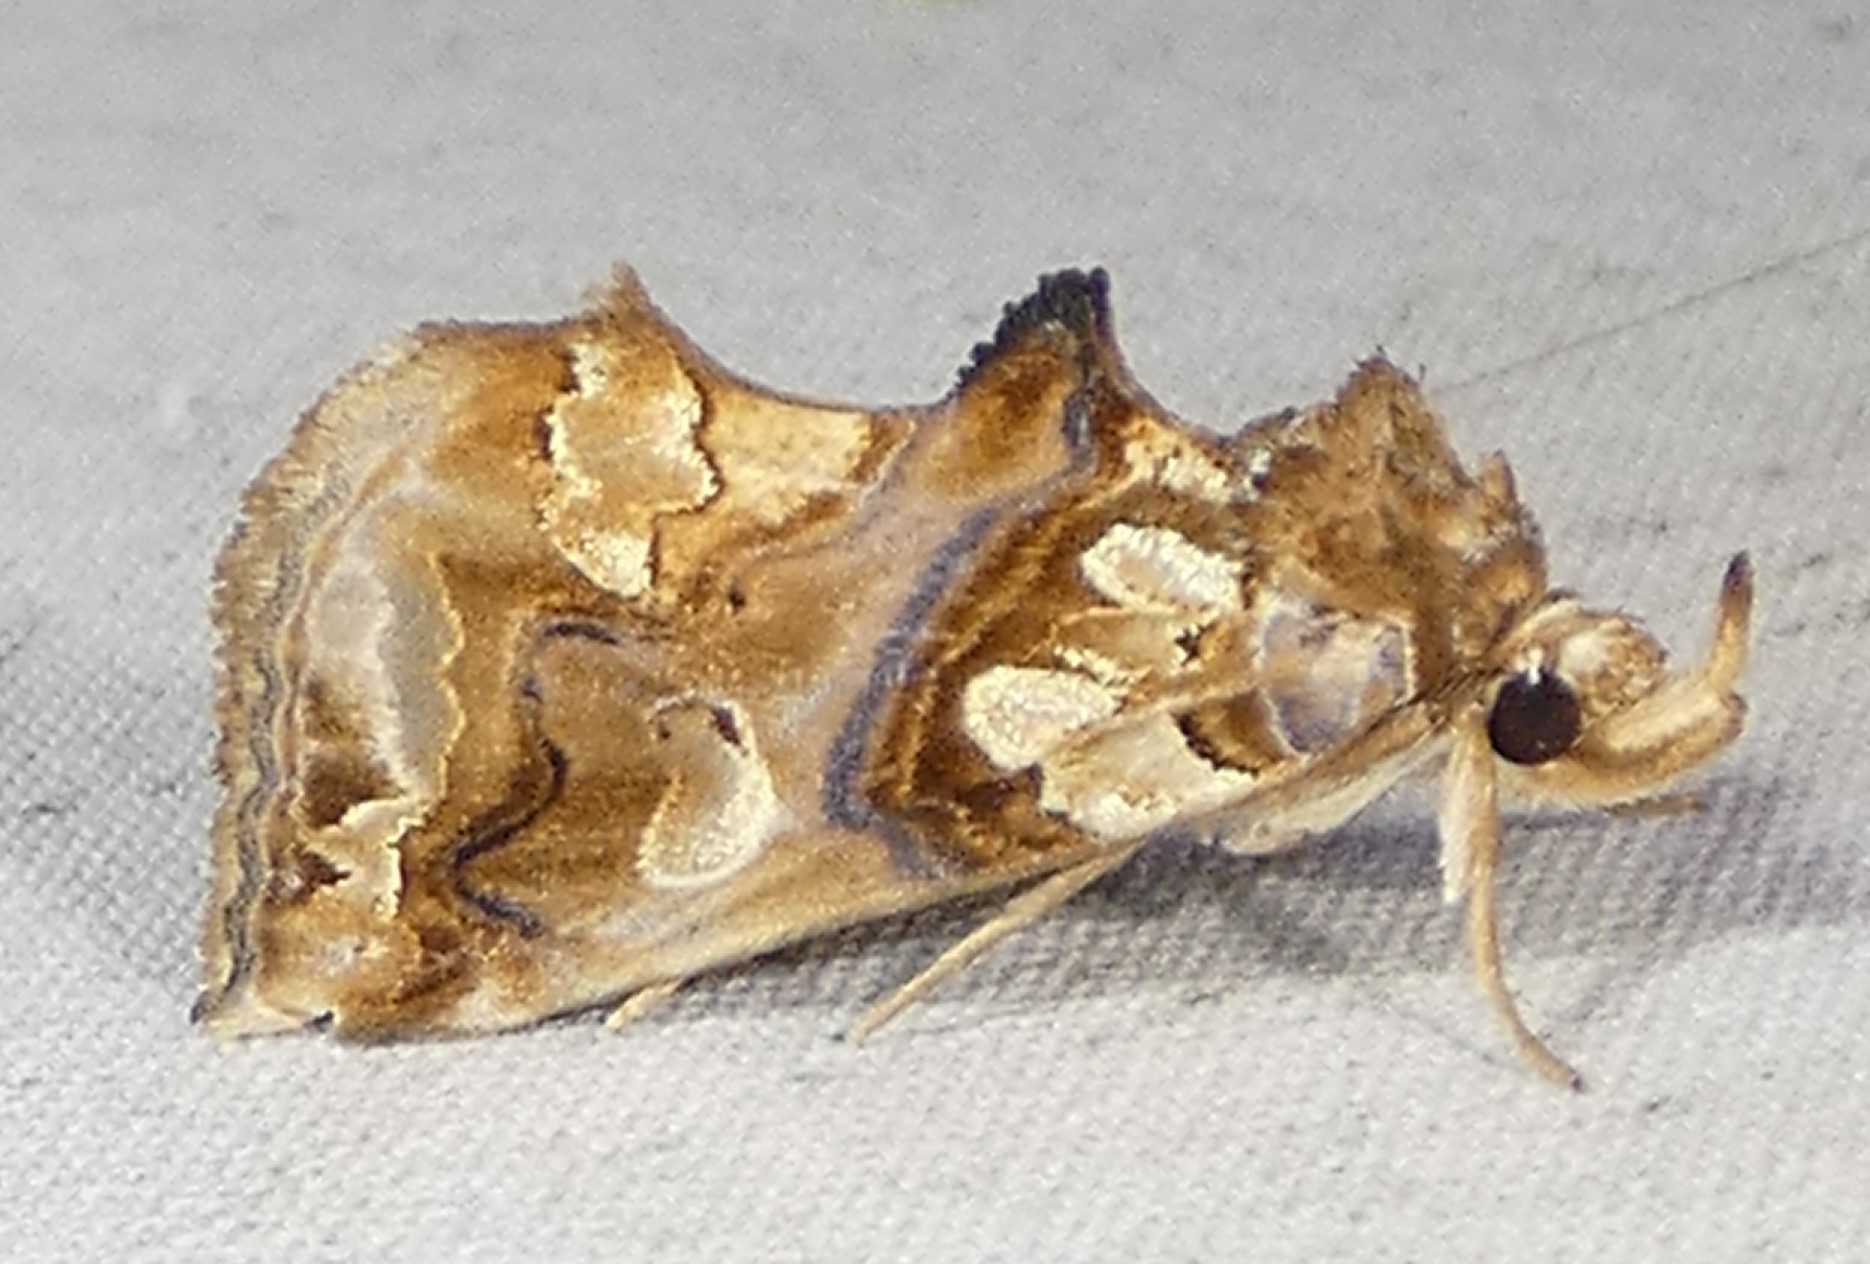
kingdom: Animalia
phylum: Arthropoda
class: Insecta
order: Lepidoptera
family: Erebidae
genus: Plusiodonta
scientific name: Plusiodonta compressipalpis
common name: Moonseed moth
